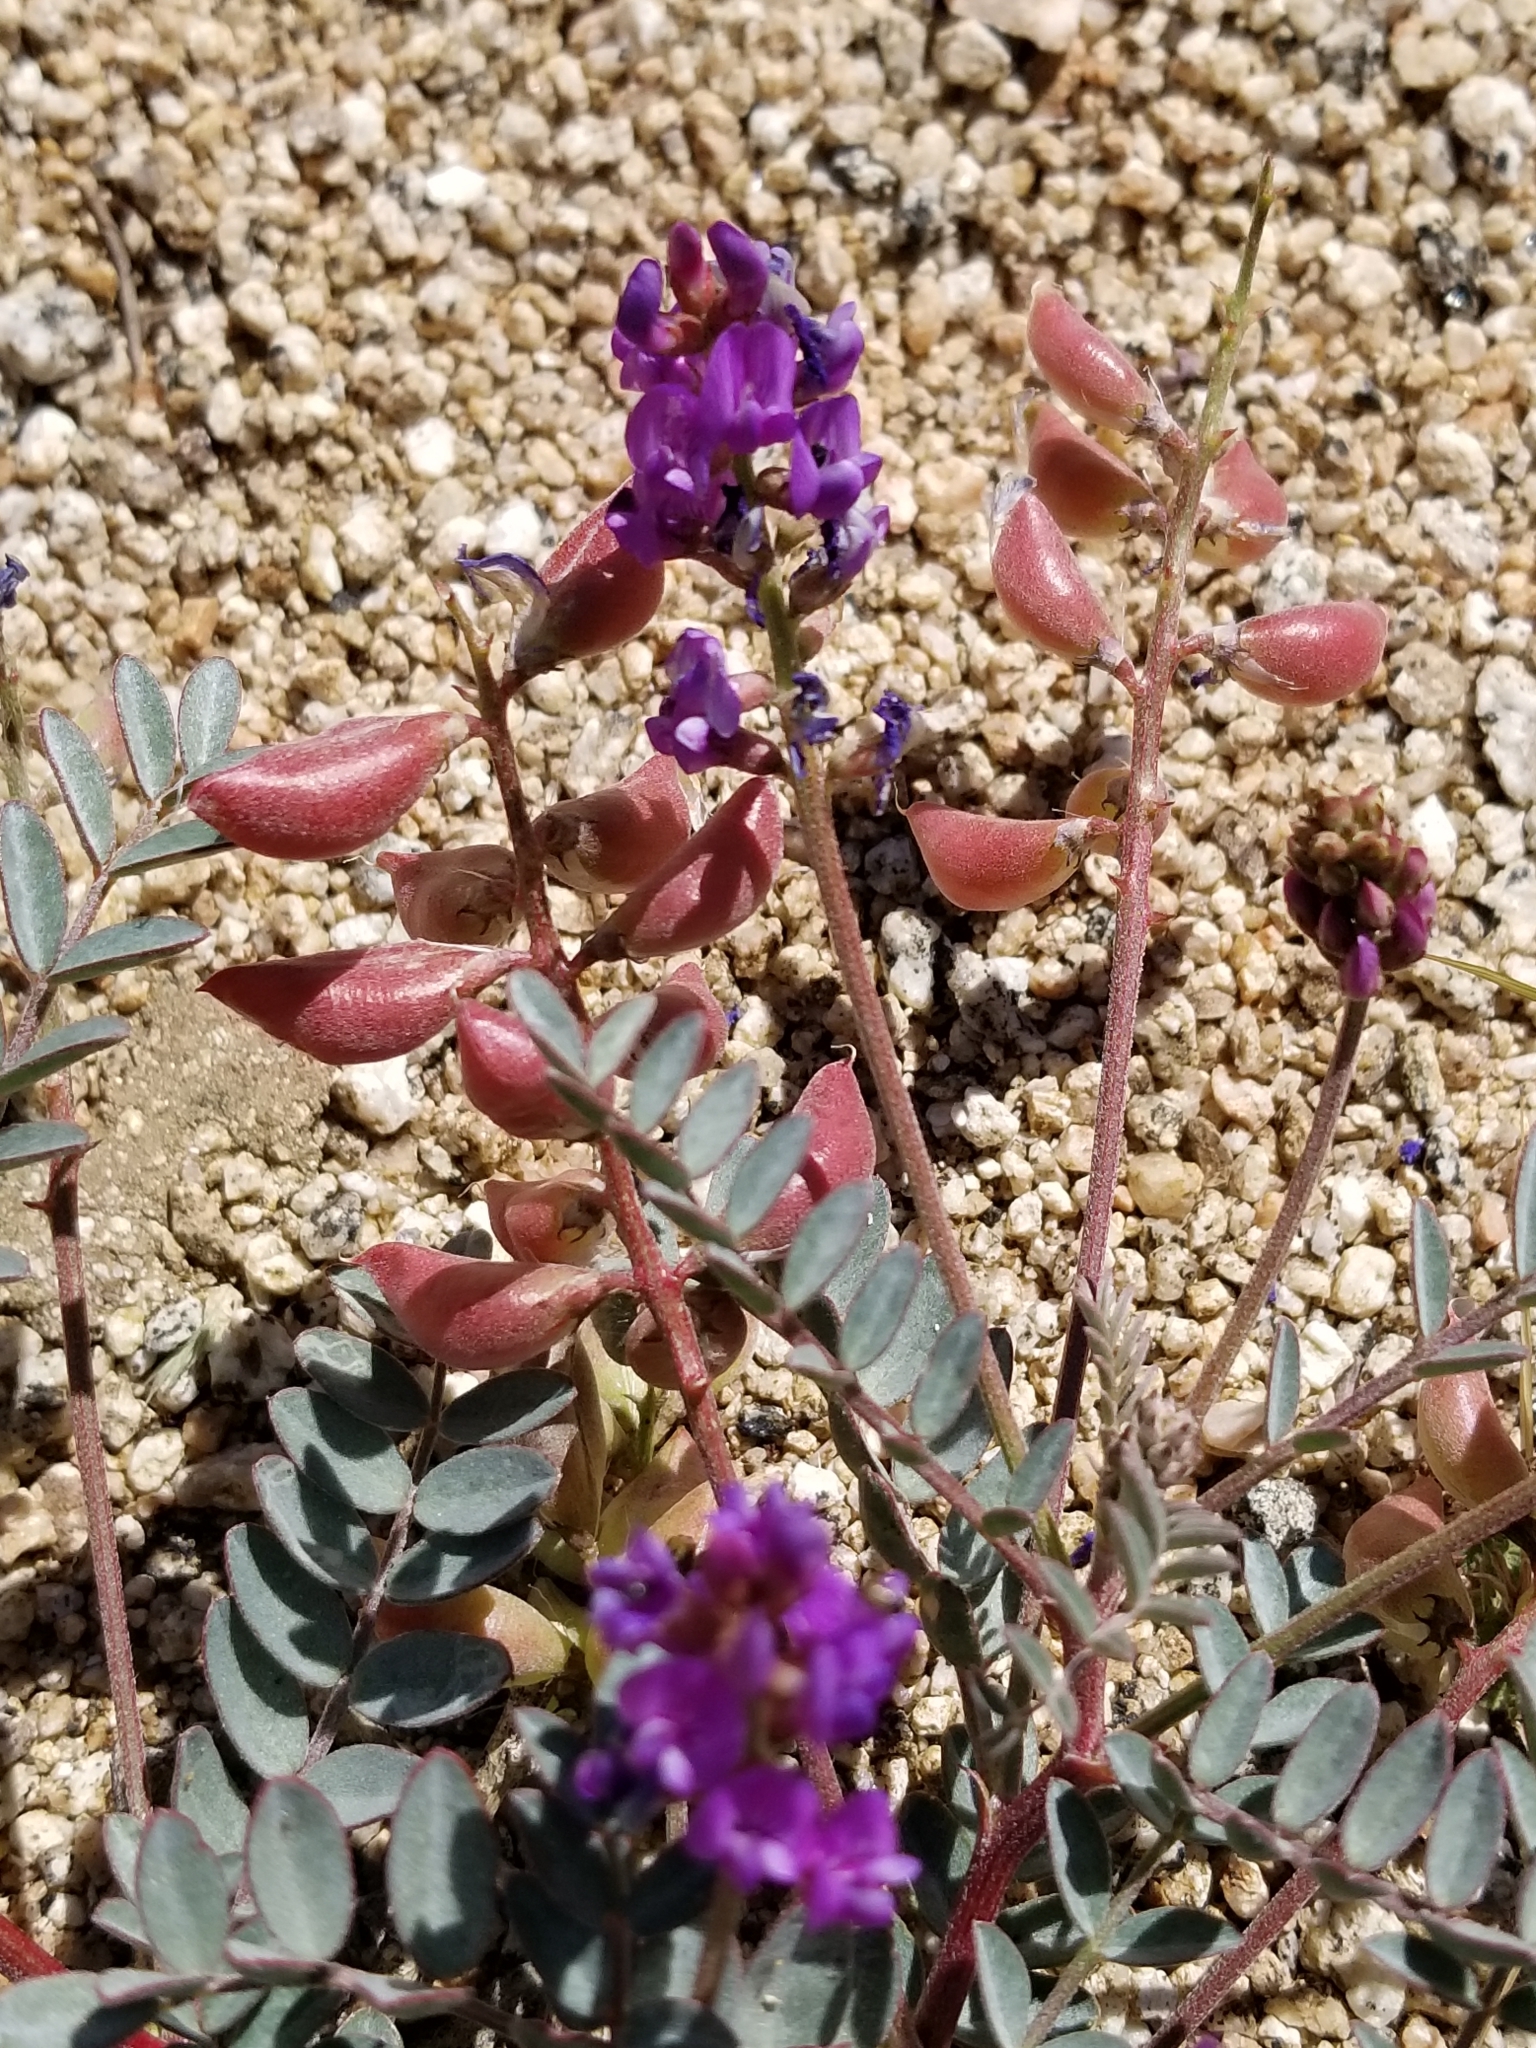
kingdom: Plantae
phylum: Tracheophyta
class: Magnoliopsida
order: Fabales
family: Fabaceae
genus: Astragalus
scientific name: Astragalus palmeri
